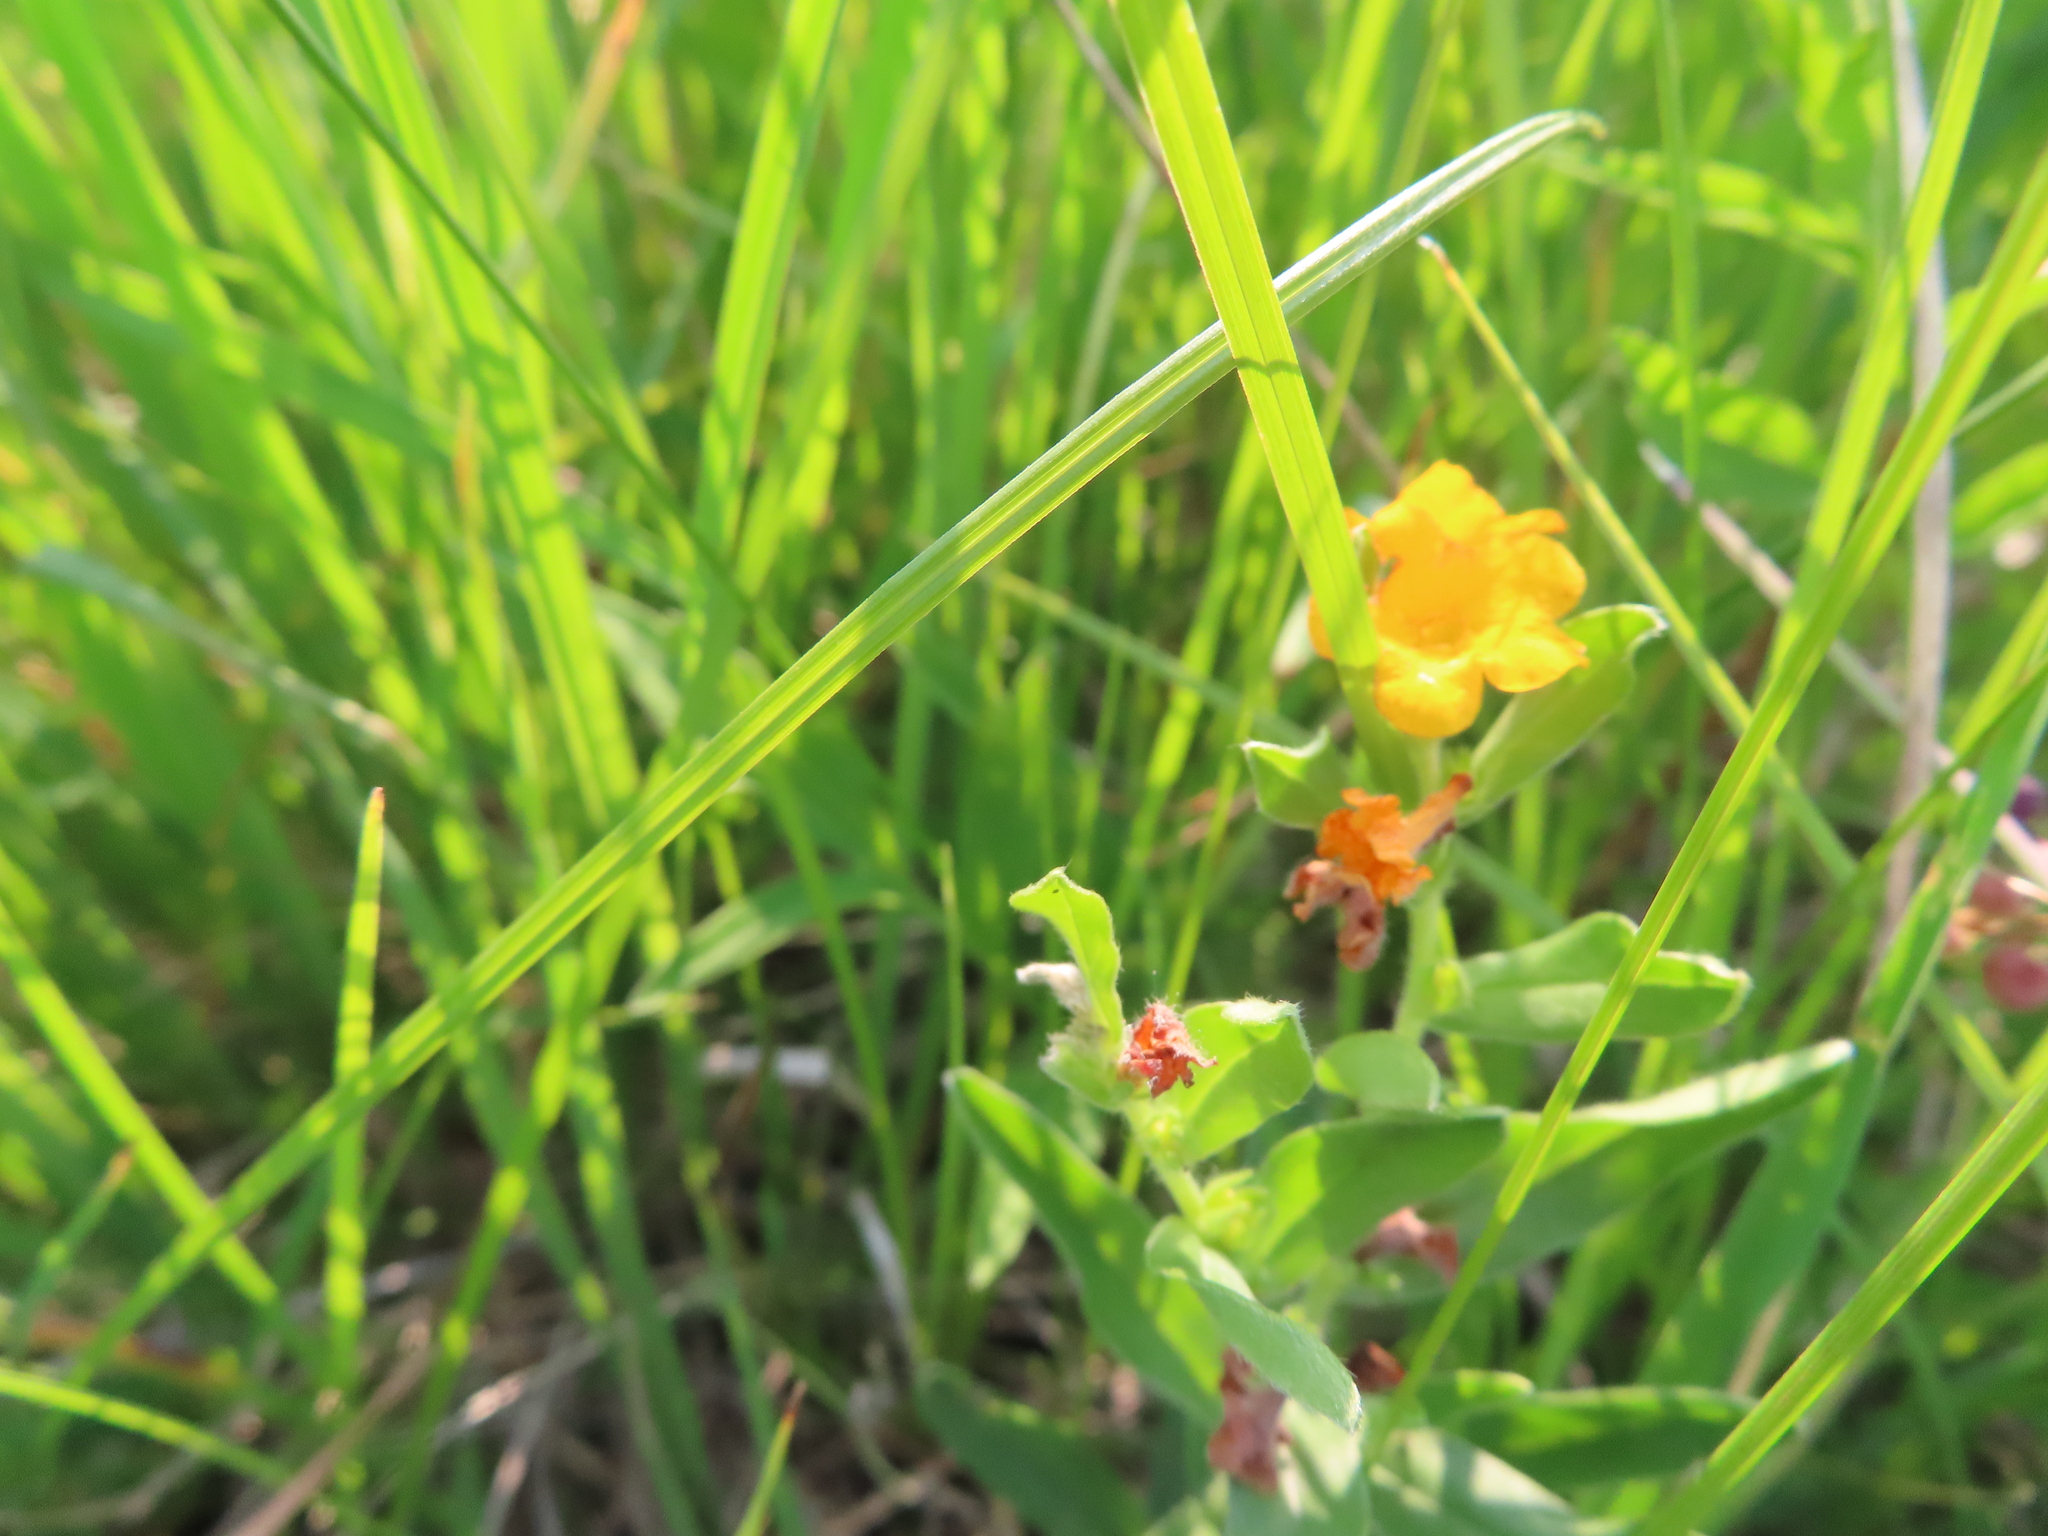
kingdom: Plantae
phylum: Tracheophyta
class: Magnoliopsida
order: Boraginales
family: Boraginaceae
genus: Lithospermum
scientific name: Lithospermum canescens
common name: Hoary puccoon
